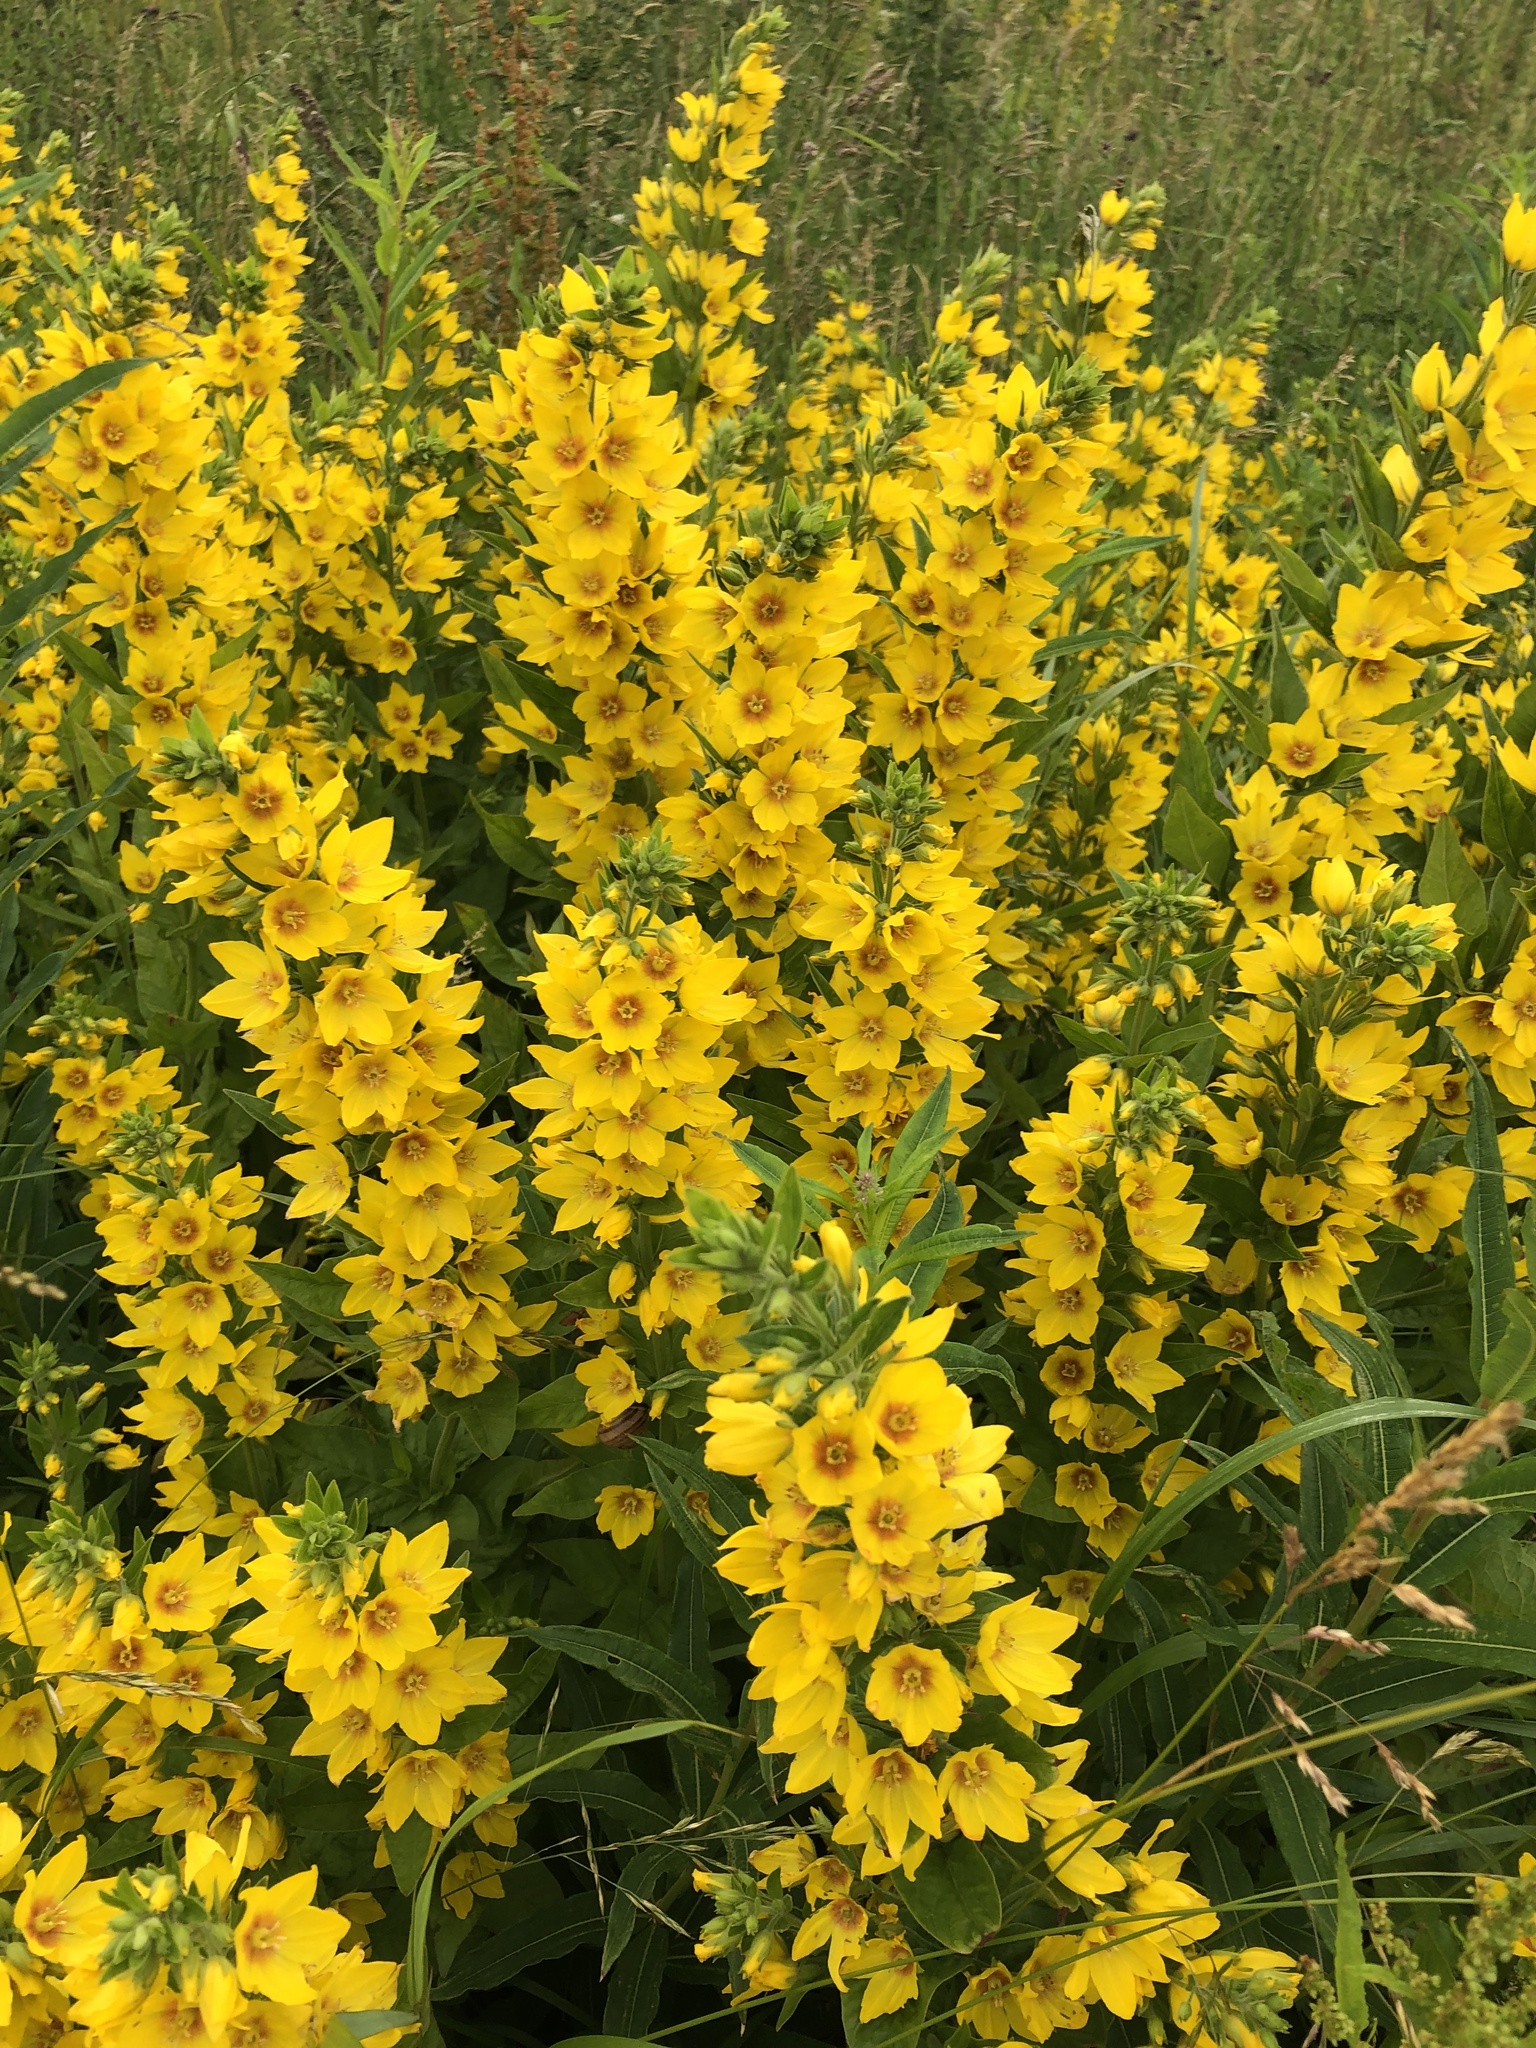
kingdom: Plantae
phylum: Tracheophyta
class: Magnoliopsida
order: Ericales
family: Primulaceae
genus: Lysimachia
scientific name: Lysimachia punctata
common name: Dotted loosestrife
